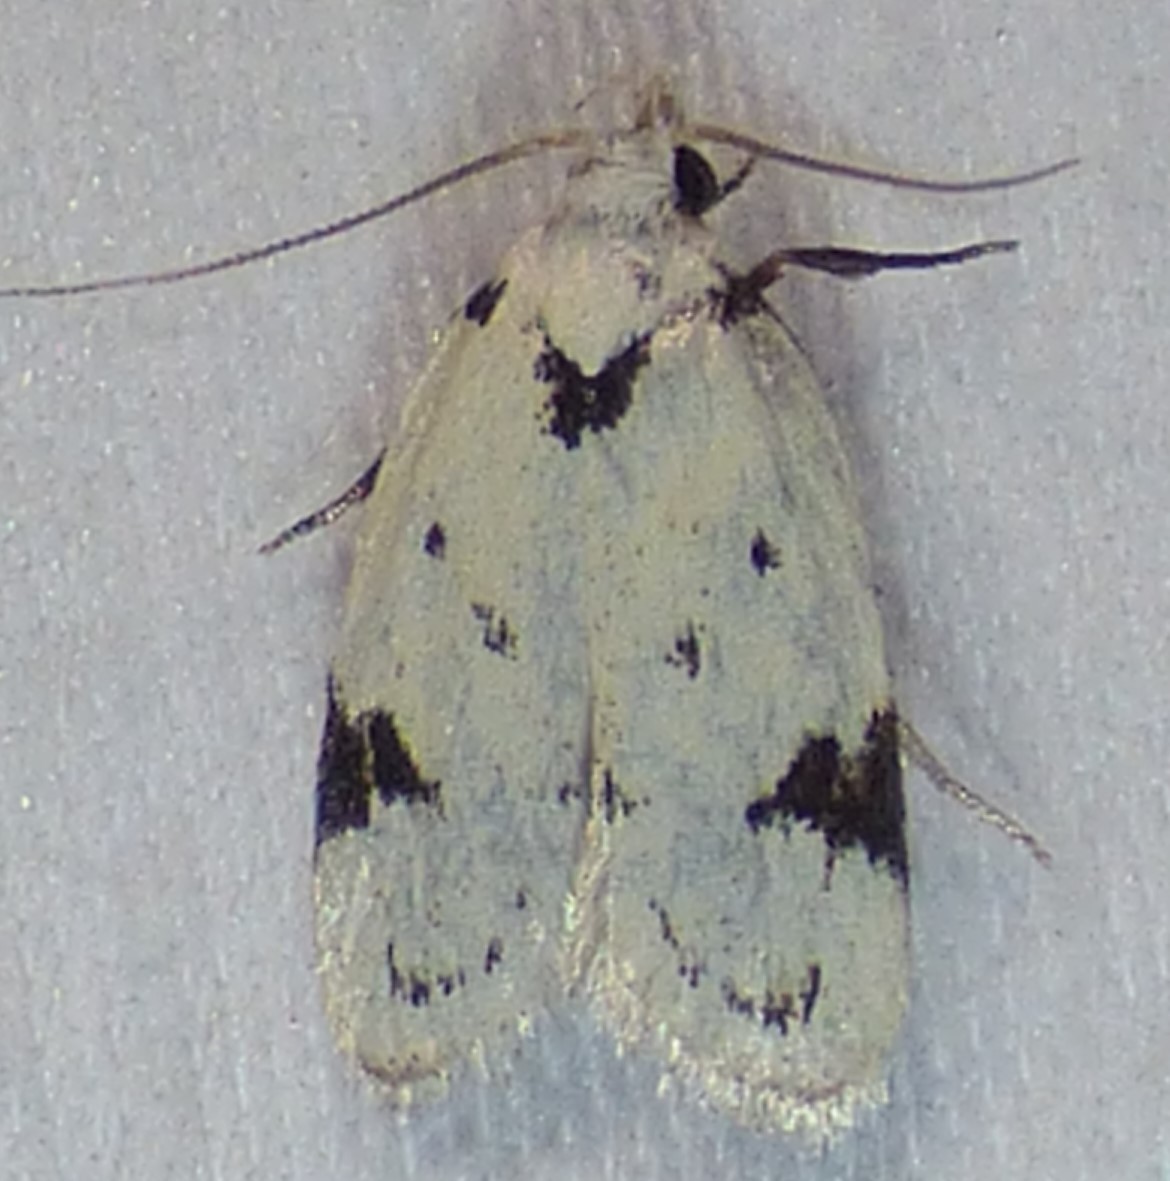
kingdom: Animalia
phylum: Arthropoda
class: Insecta
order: Lepidoptera
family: Oecophoridae
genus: Inga
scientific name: Inga sparsiciliella
